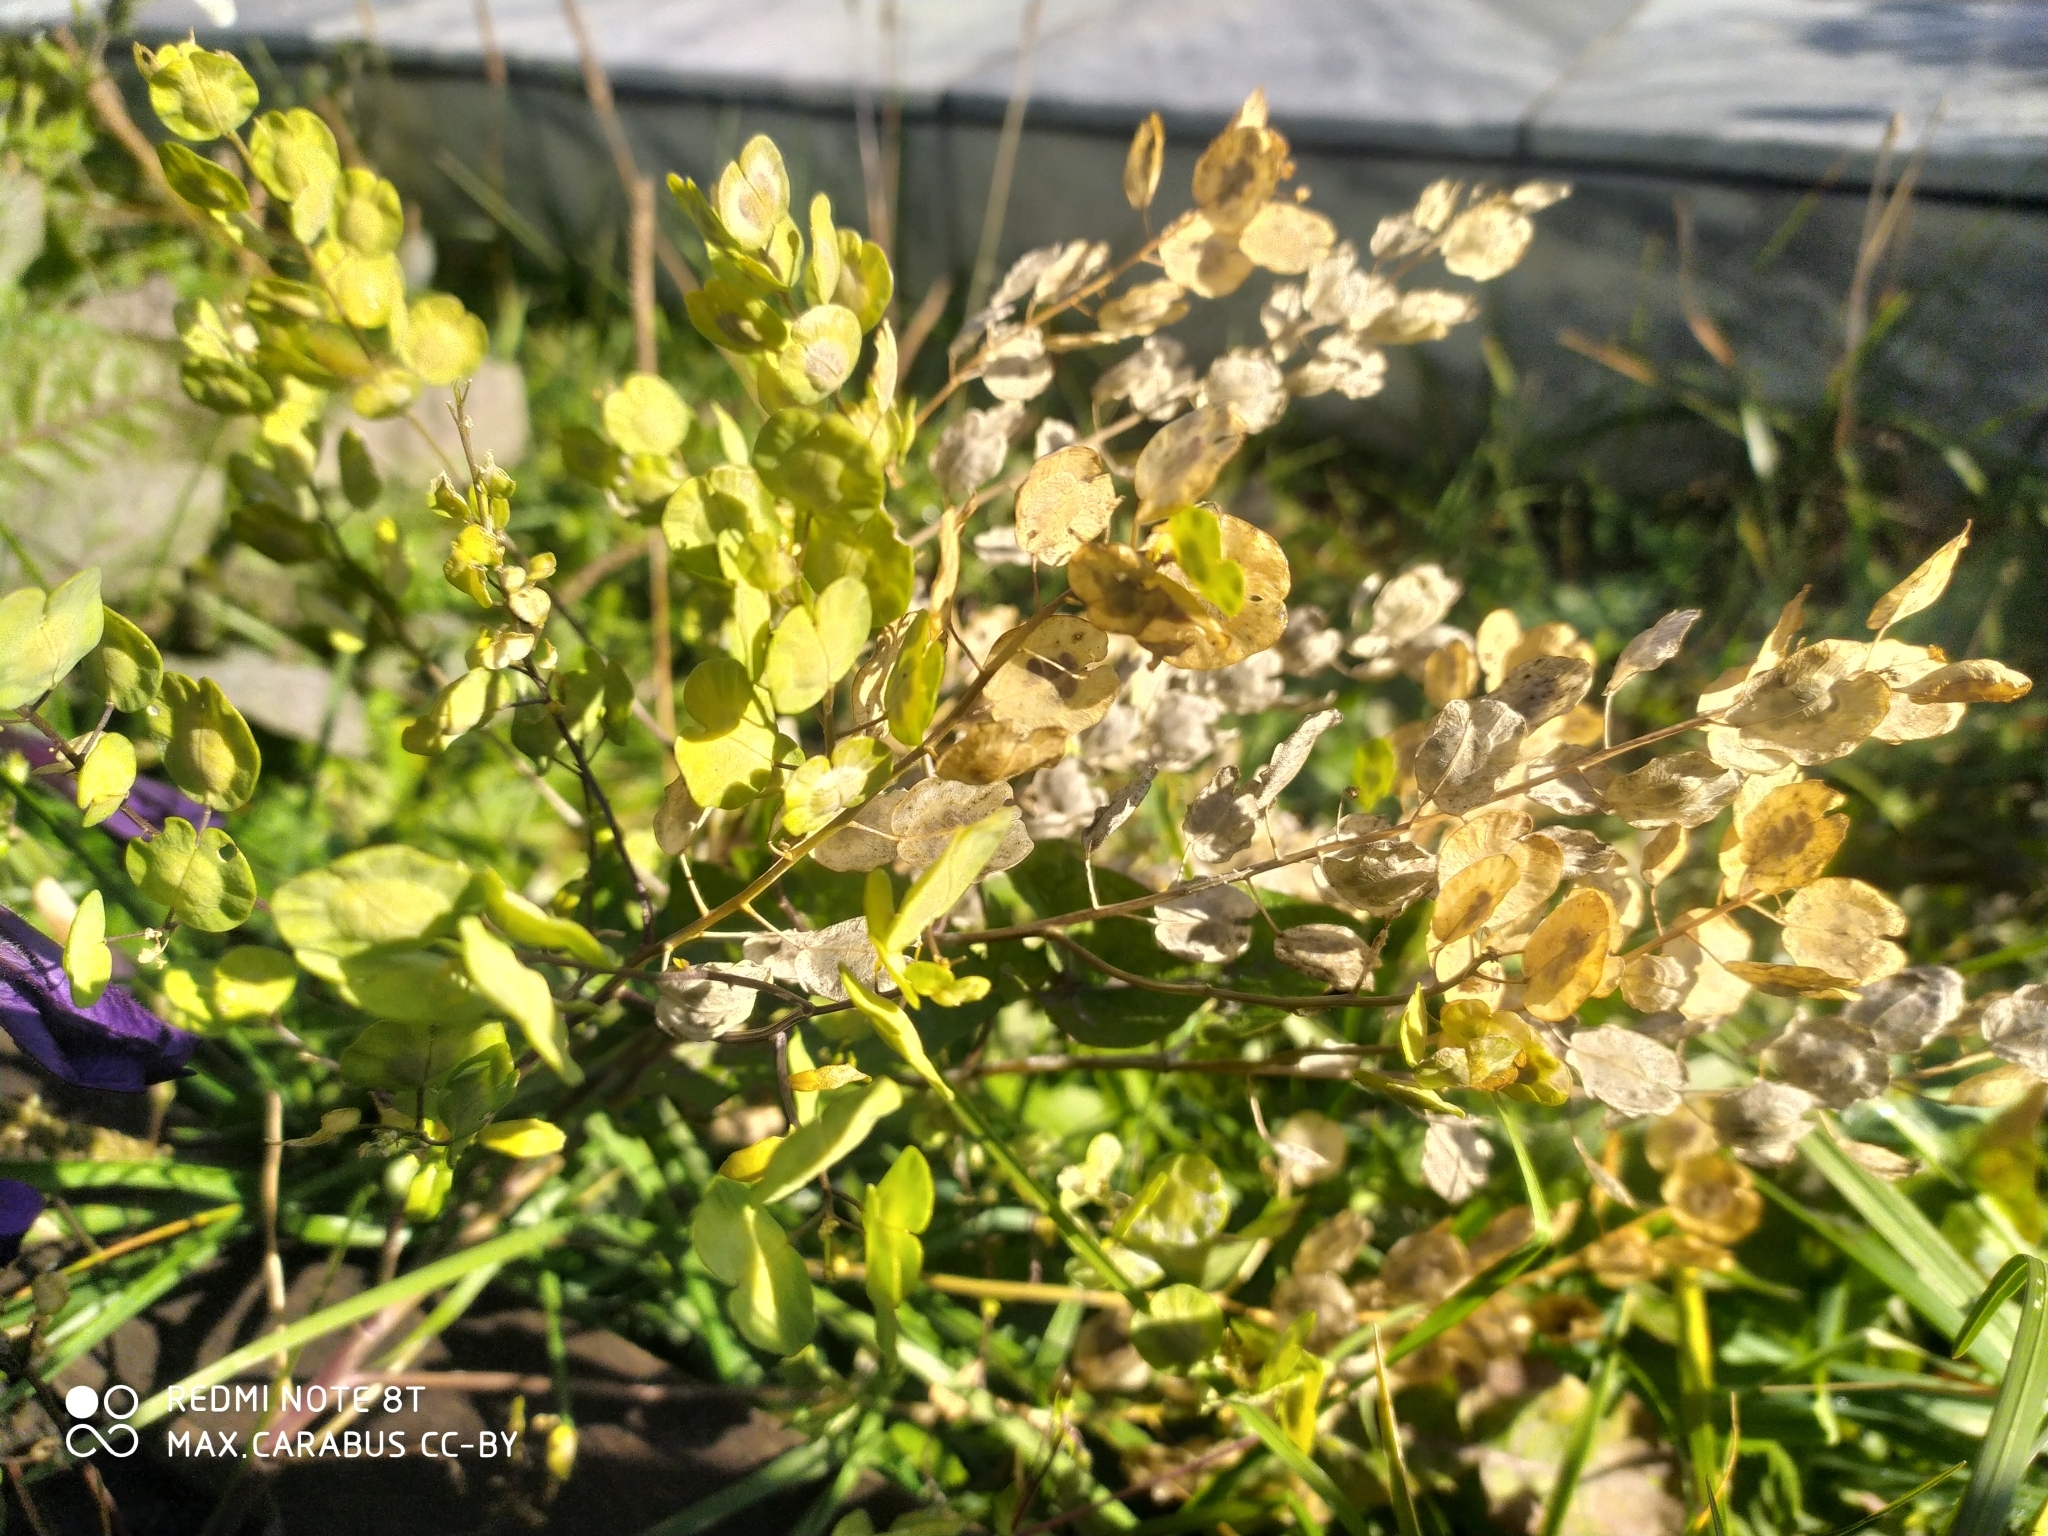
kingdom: Plantae
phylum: Tracheophyta
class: Magnoliopsida
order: Brassicales
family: Brassicaceae
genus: Thlaspi
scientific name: Thlaspi arvense
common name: Field pennycress
